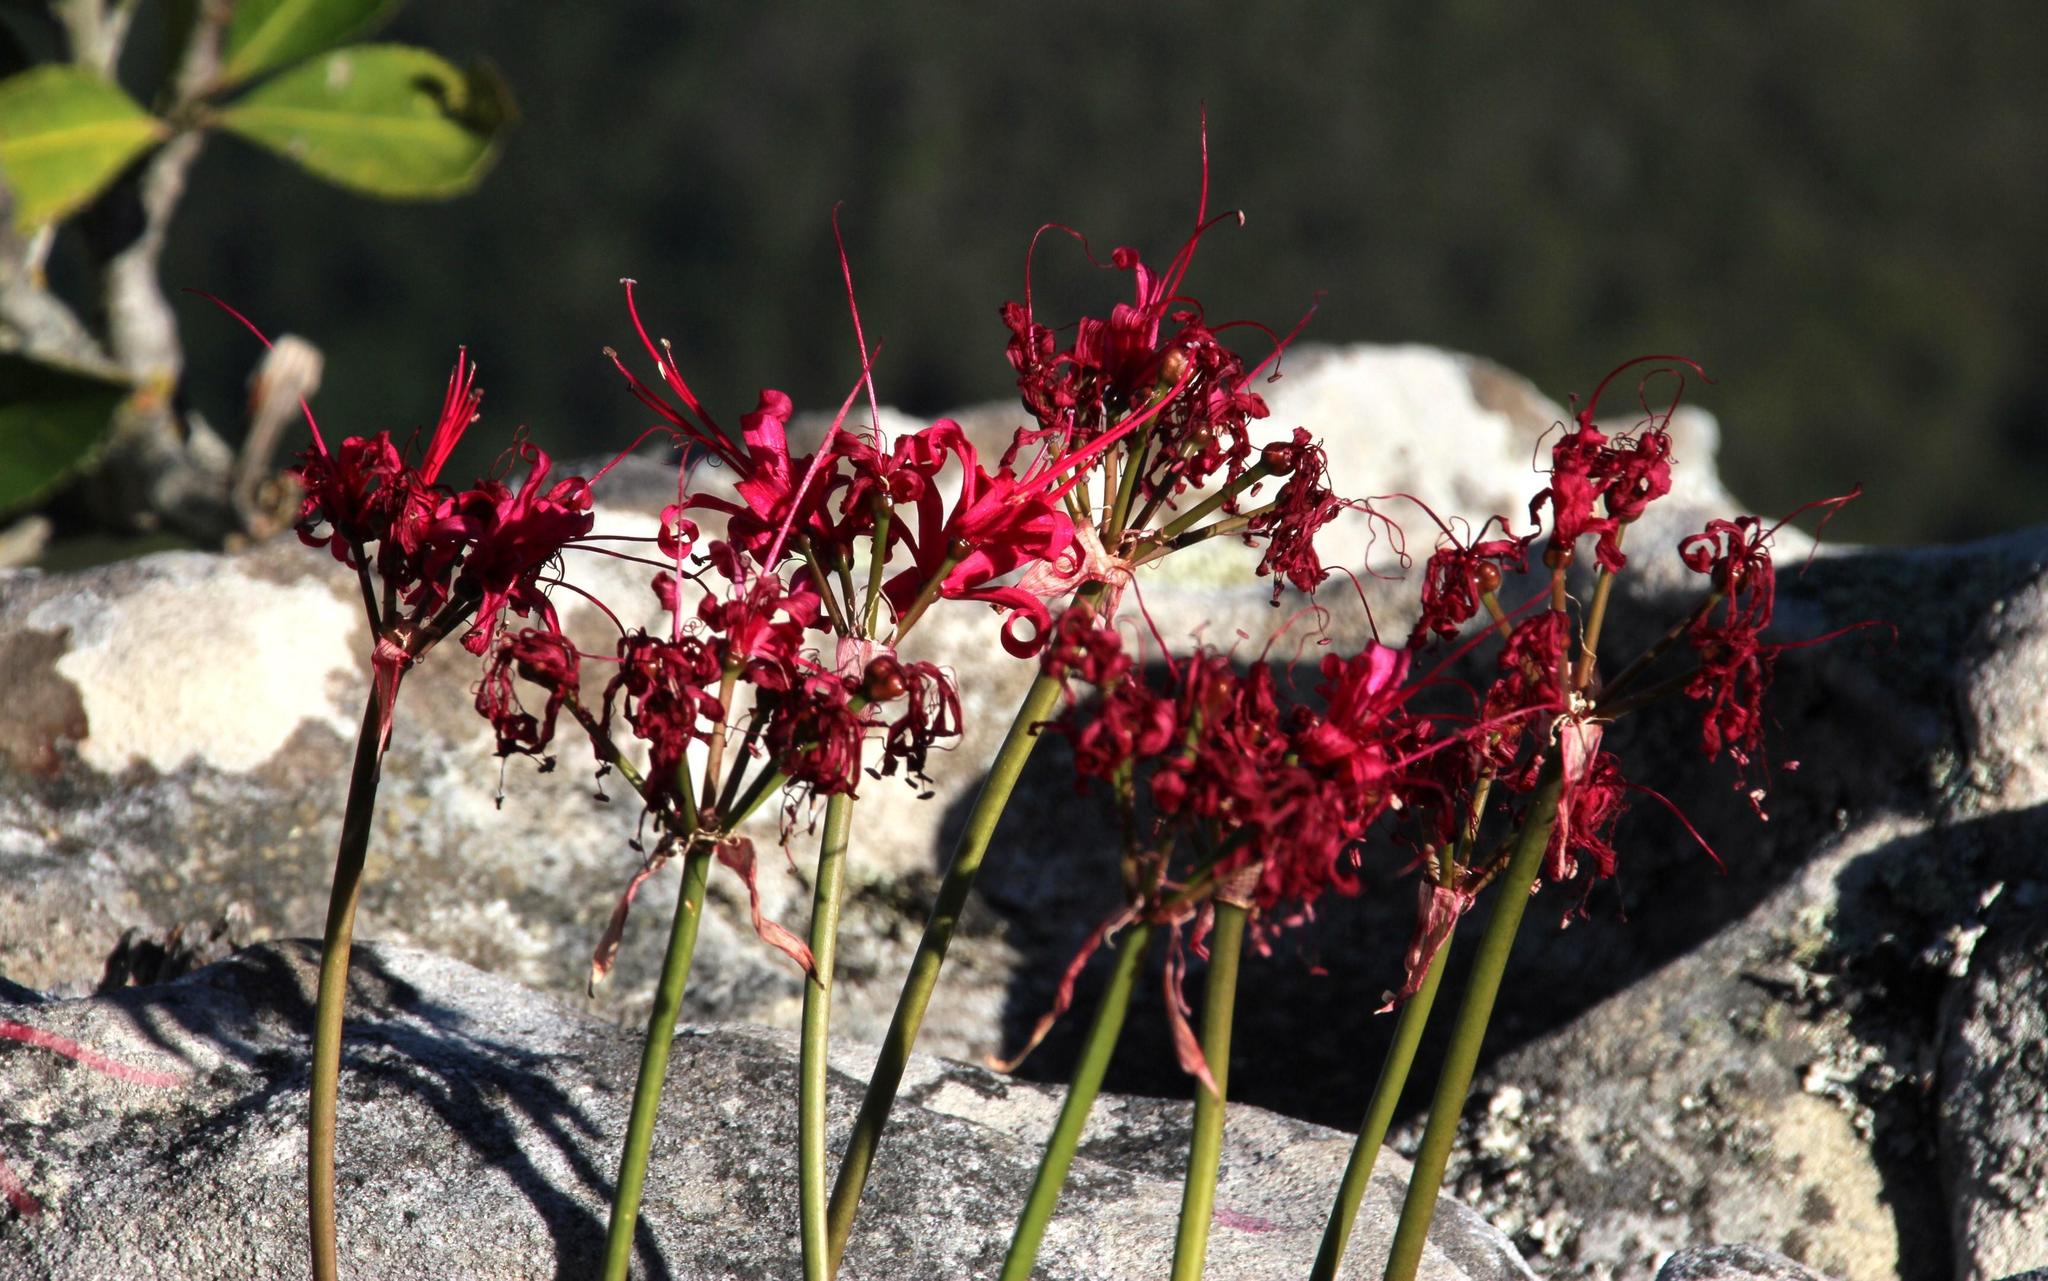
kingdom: Plantae
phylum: Tracheophyta
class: Liliopsida
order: Asparagales
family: Amaryllidaceae
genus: Nerine
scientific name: Nerine sarniensis
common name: Guernsey-lily
